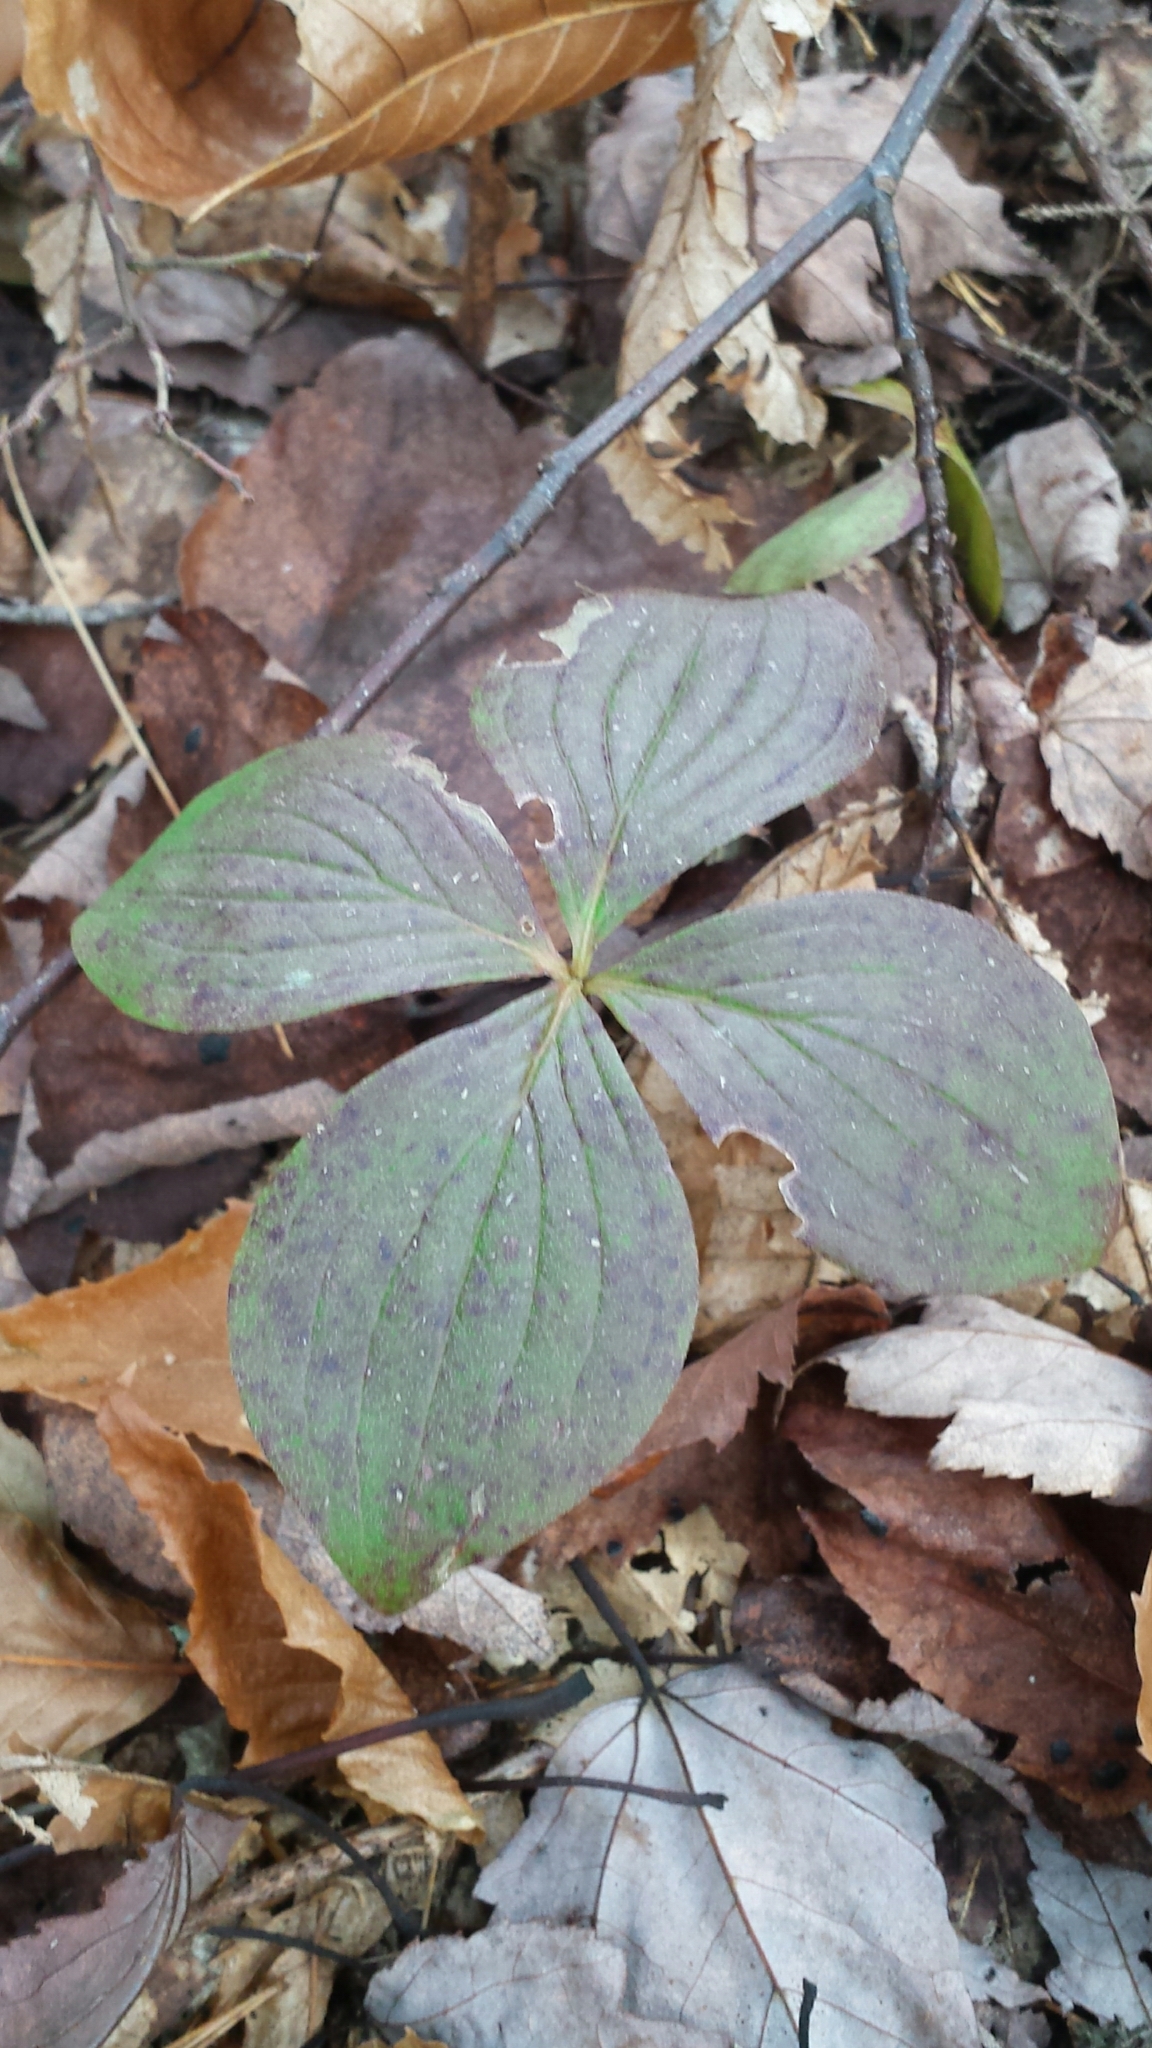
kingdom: Plantae
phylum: Tracheophyta
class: Magnoliopsida
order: Cornales
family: Cornaceae
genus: Cornus
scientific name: Cornus canadensis
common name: Creeping dogwood
